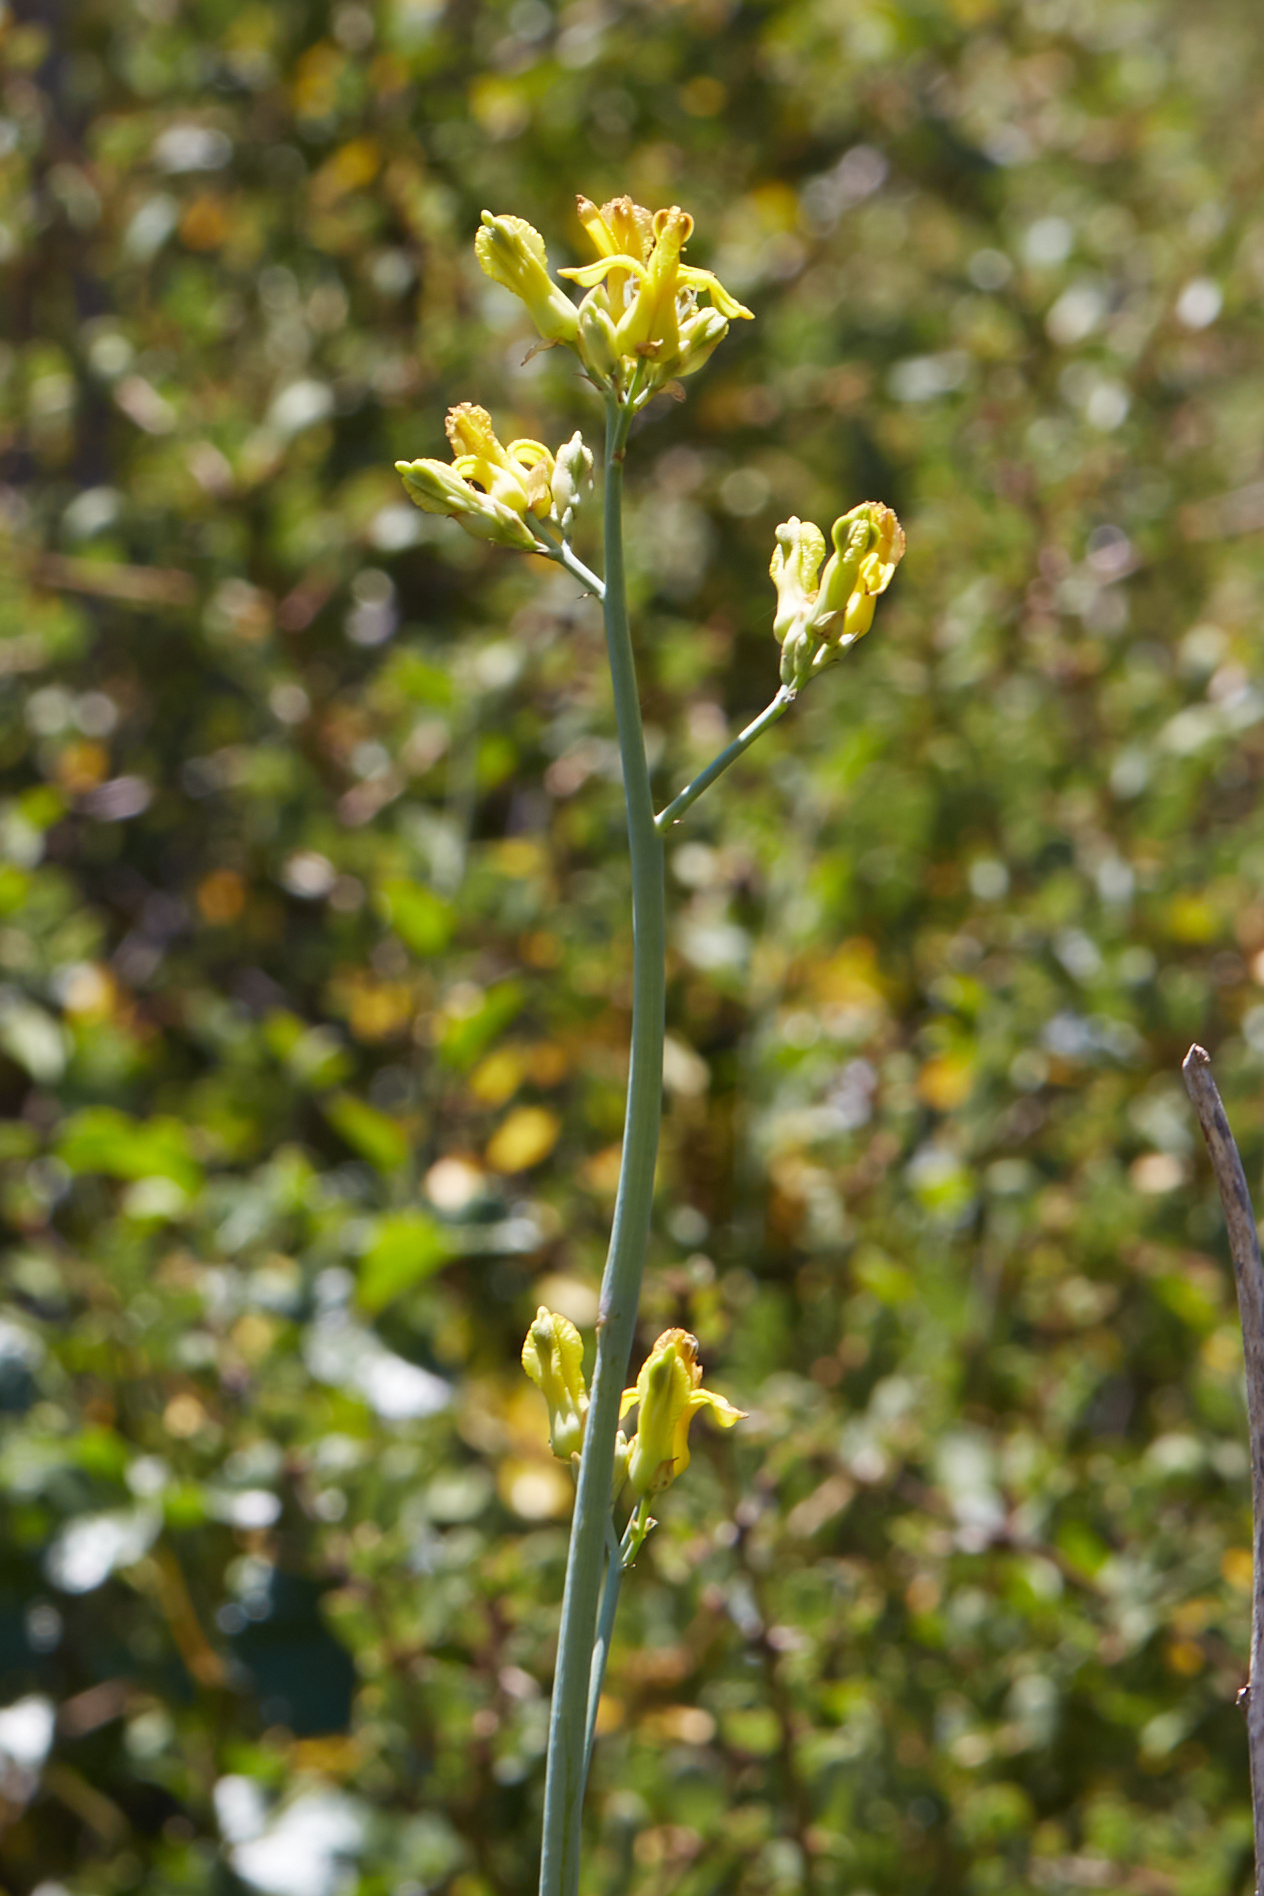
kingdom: Plantae
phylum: Tracheophyta
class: Magnoliopsida
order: Ranunculales
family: Papaveraceae
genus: Ehrendorferia
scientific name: Ehrendorferia chrysantha
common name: Golden eardrops
